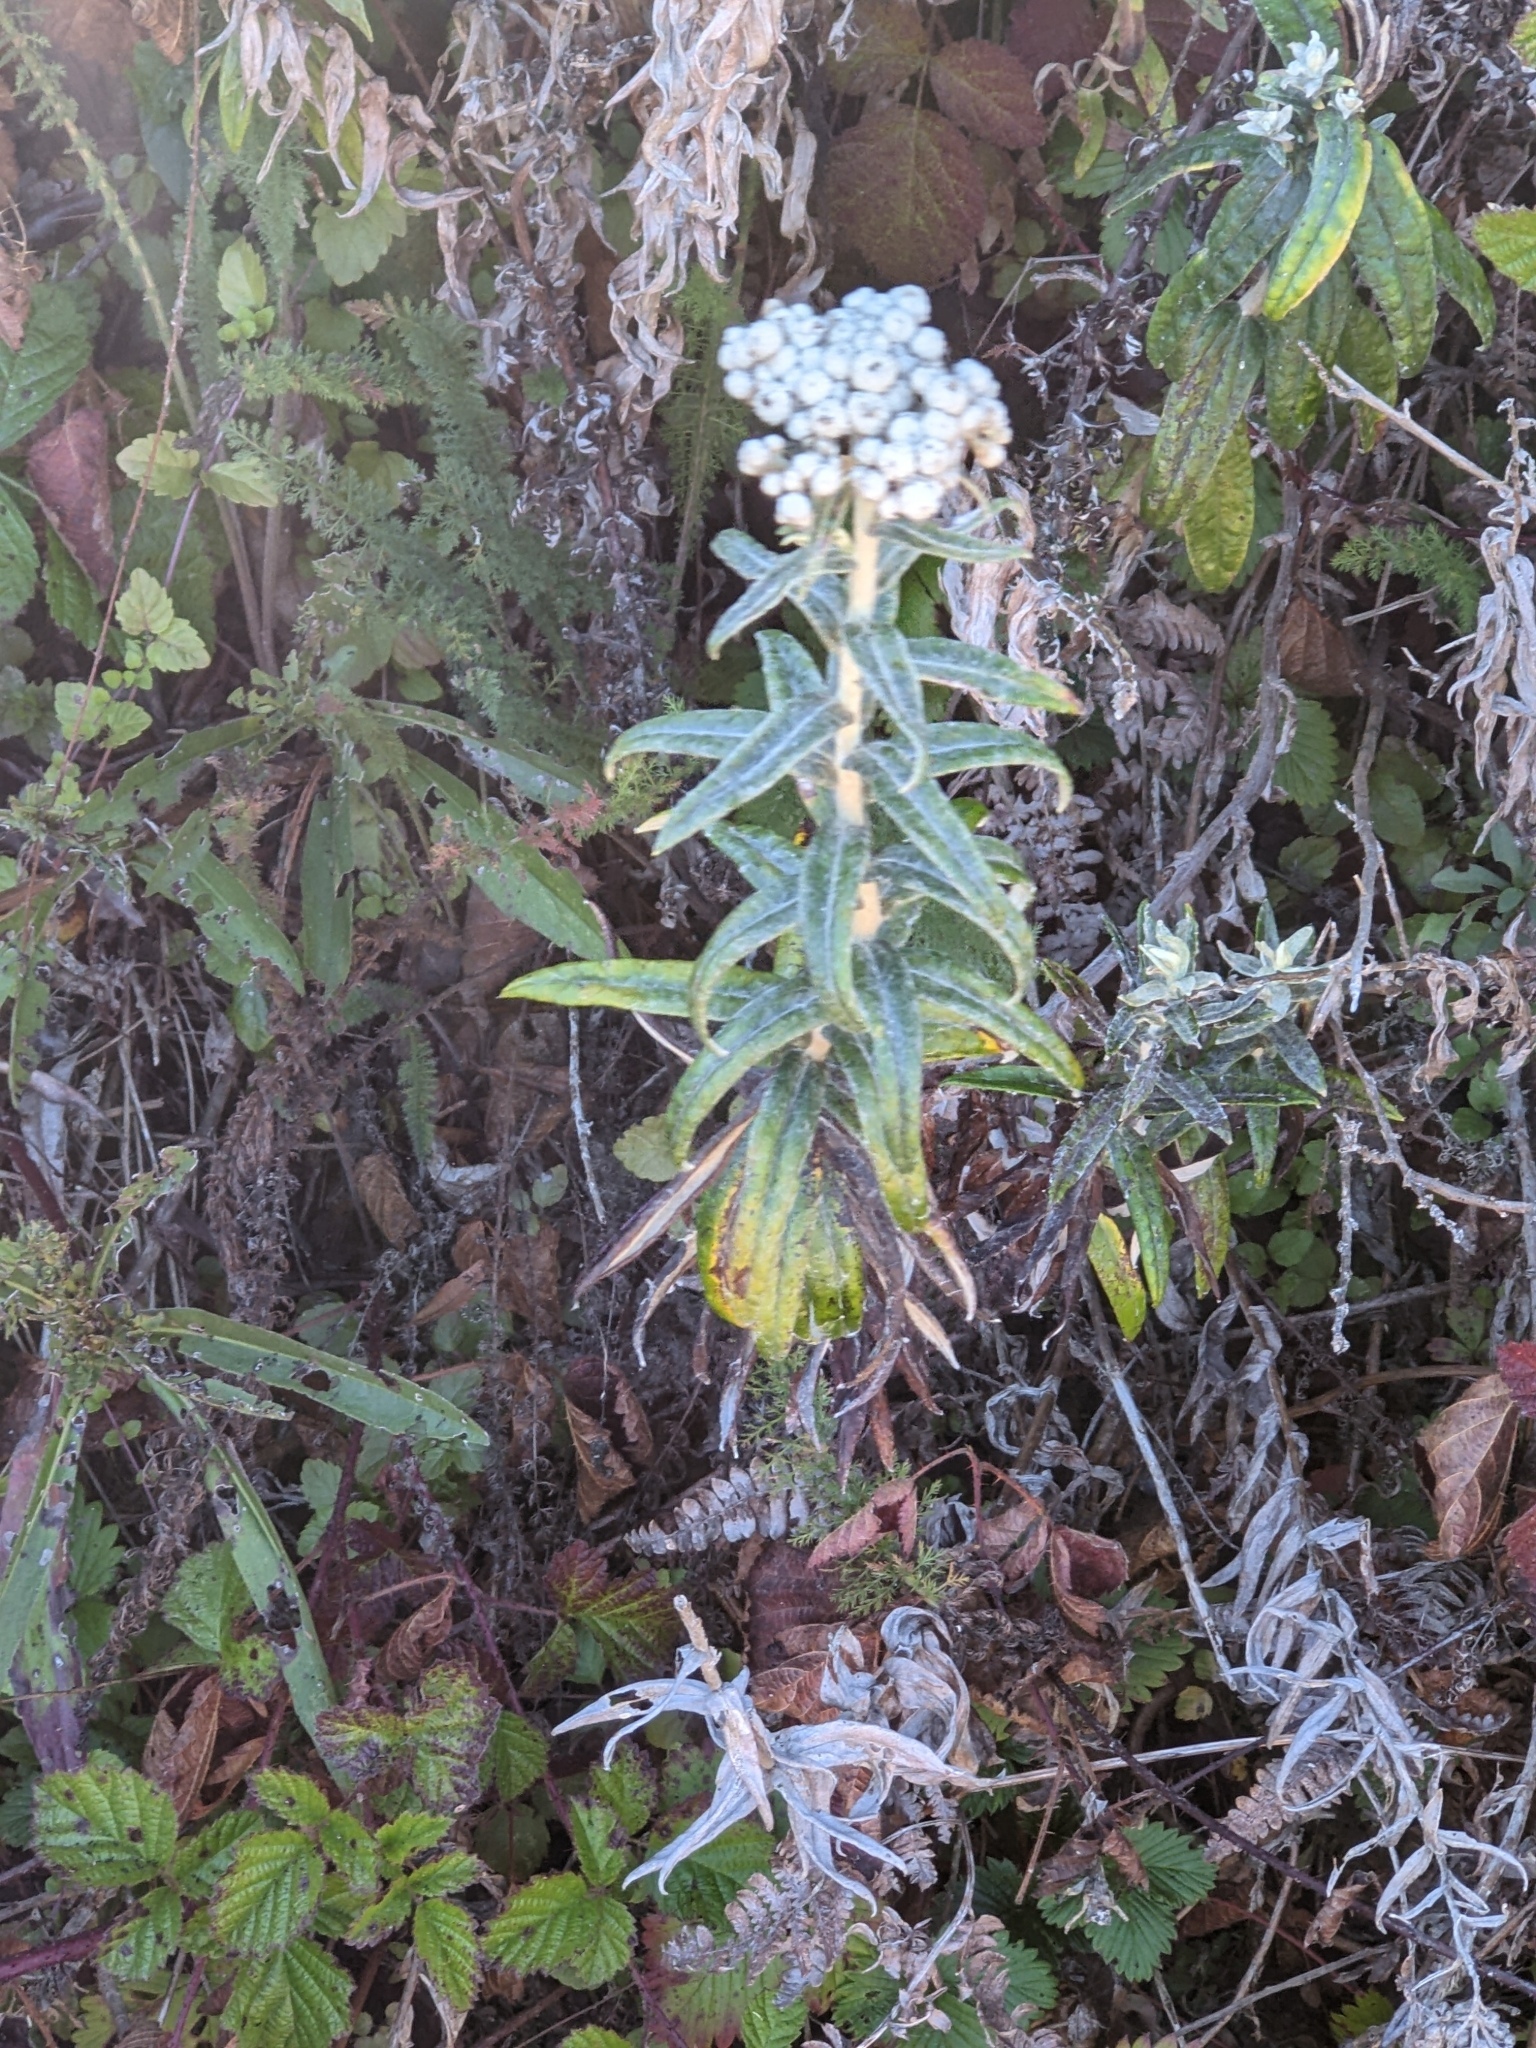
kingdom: Plantae
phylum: Tracheophyta
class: Magnoliopsida
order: Asterales
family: Asteraceae
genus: Anaphalis
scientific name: Anaphalis margaritacea
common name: Pearly everlasting
